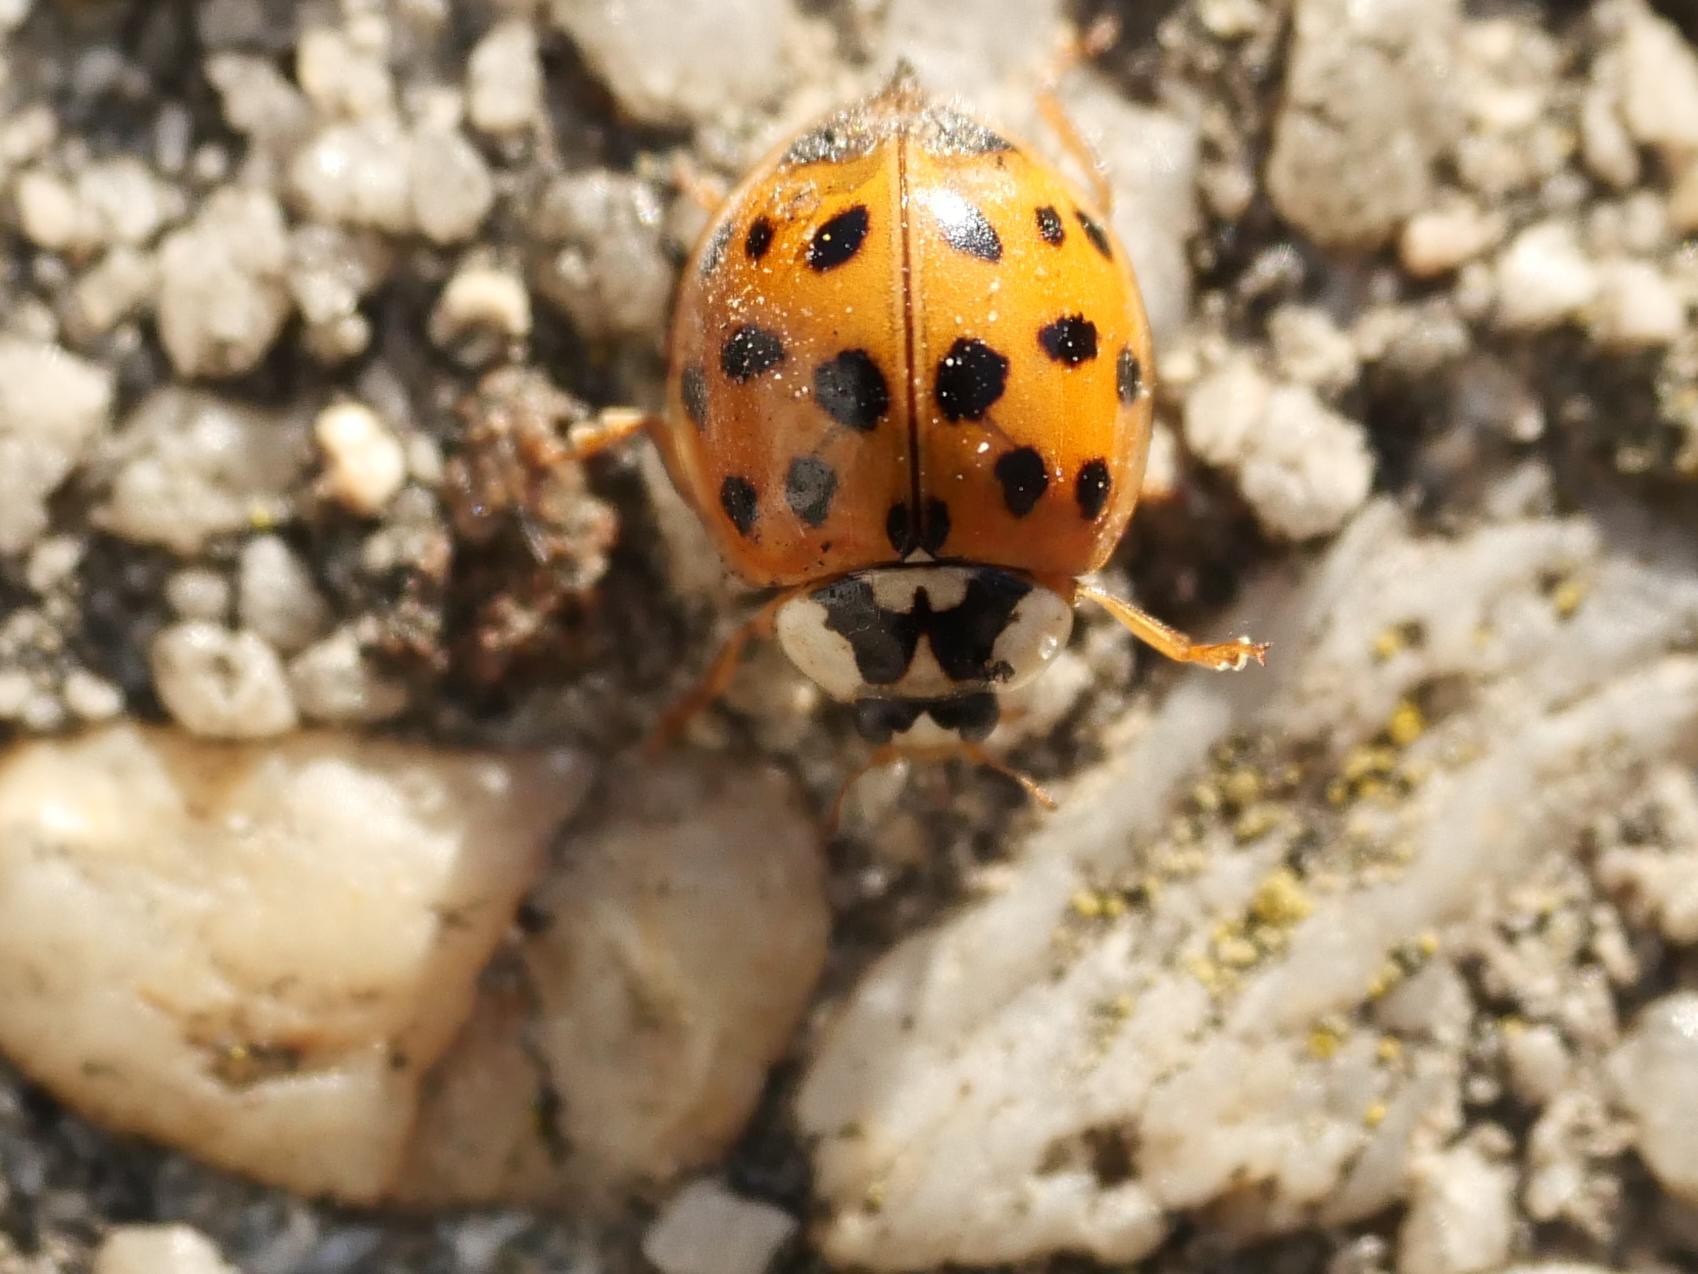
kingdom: Animalia
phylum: Arthropoda
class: Insecta
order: Coleoptera
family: Coccinellidae
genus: Harmonia
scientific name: Harmonia axyridis
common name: Harlequin ladybird
